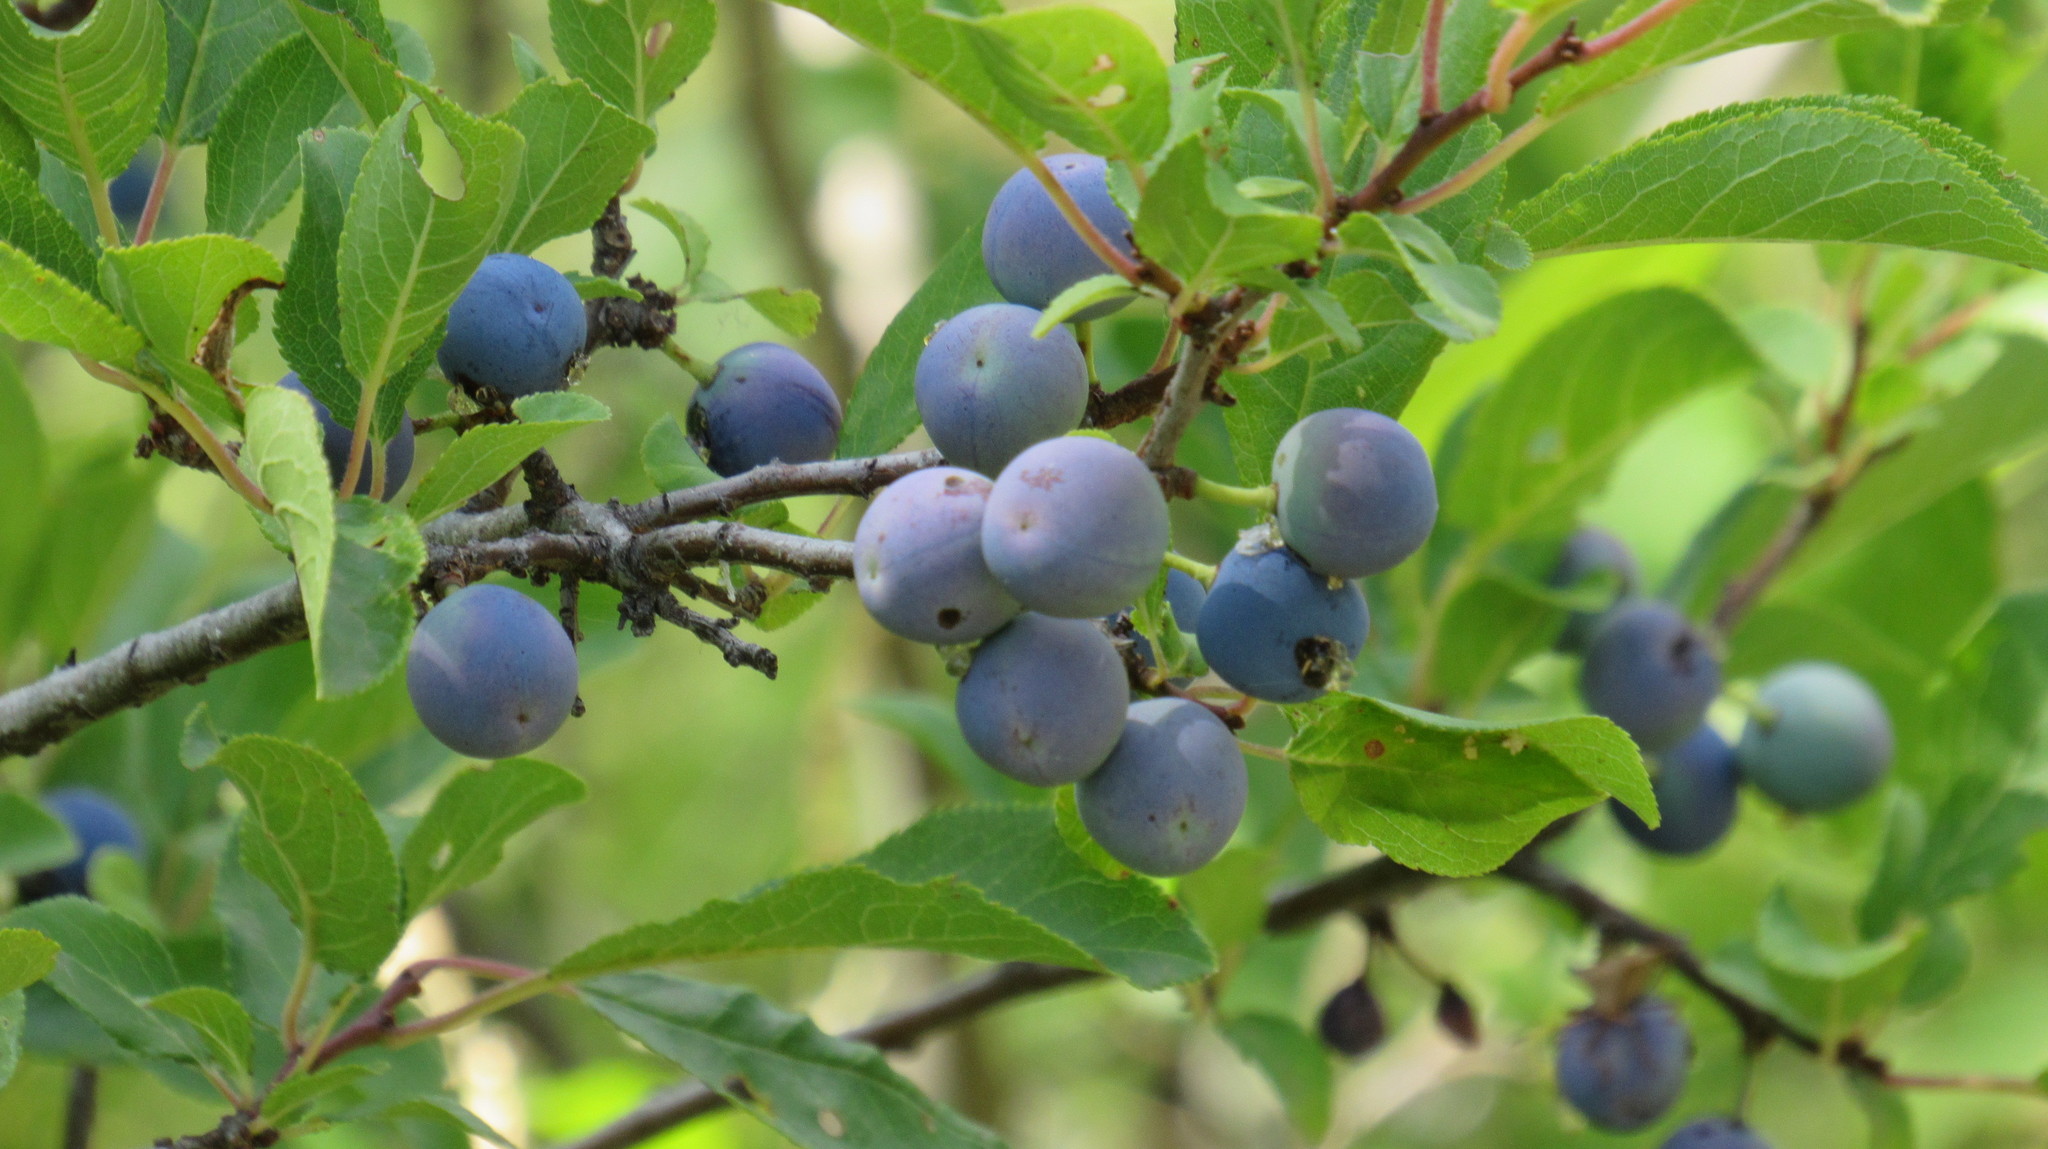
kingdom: Plantae
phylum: Tracheophyta
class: Magnoliopsida
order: Rosales
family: Rosaceae
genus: Prunus
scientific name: Prunus spinosa
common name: Blackthorn
